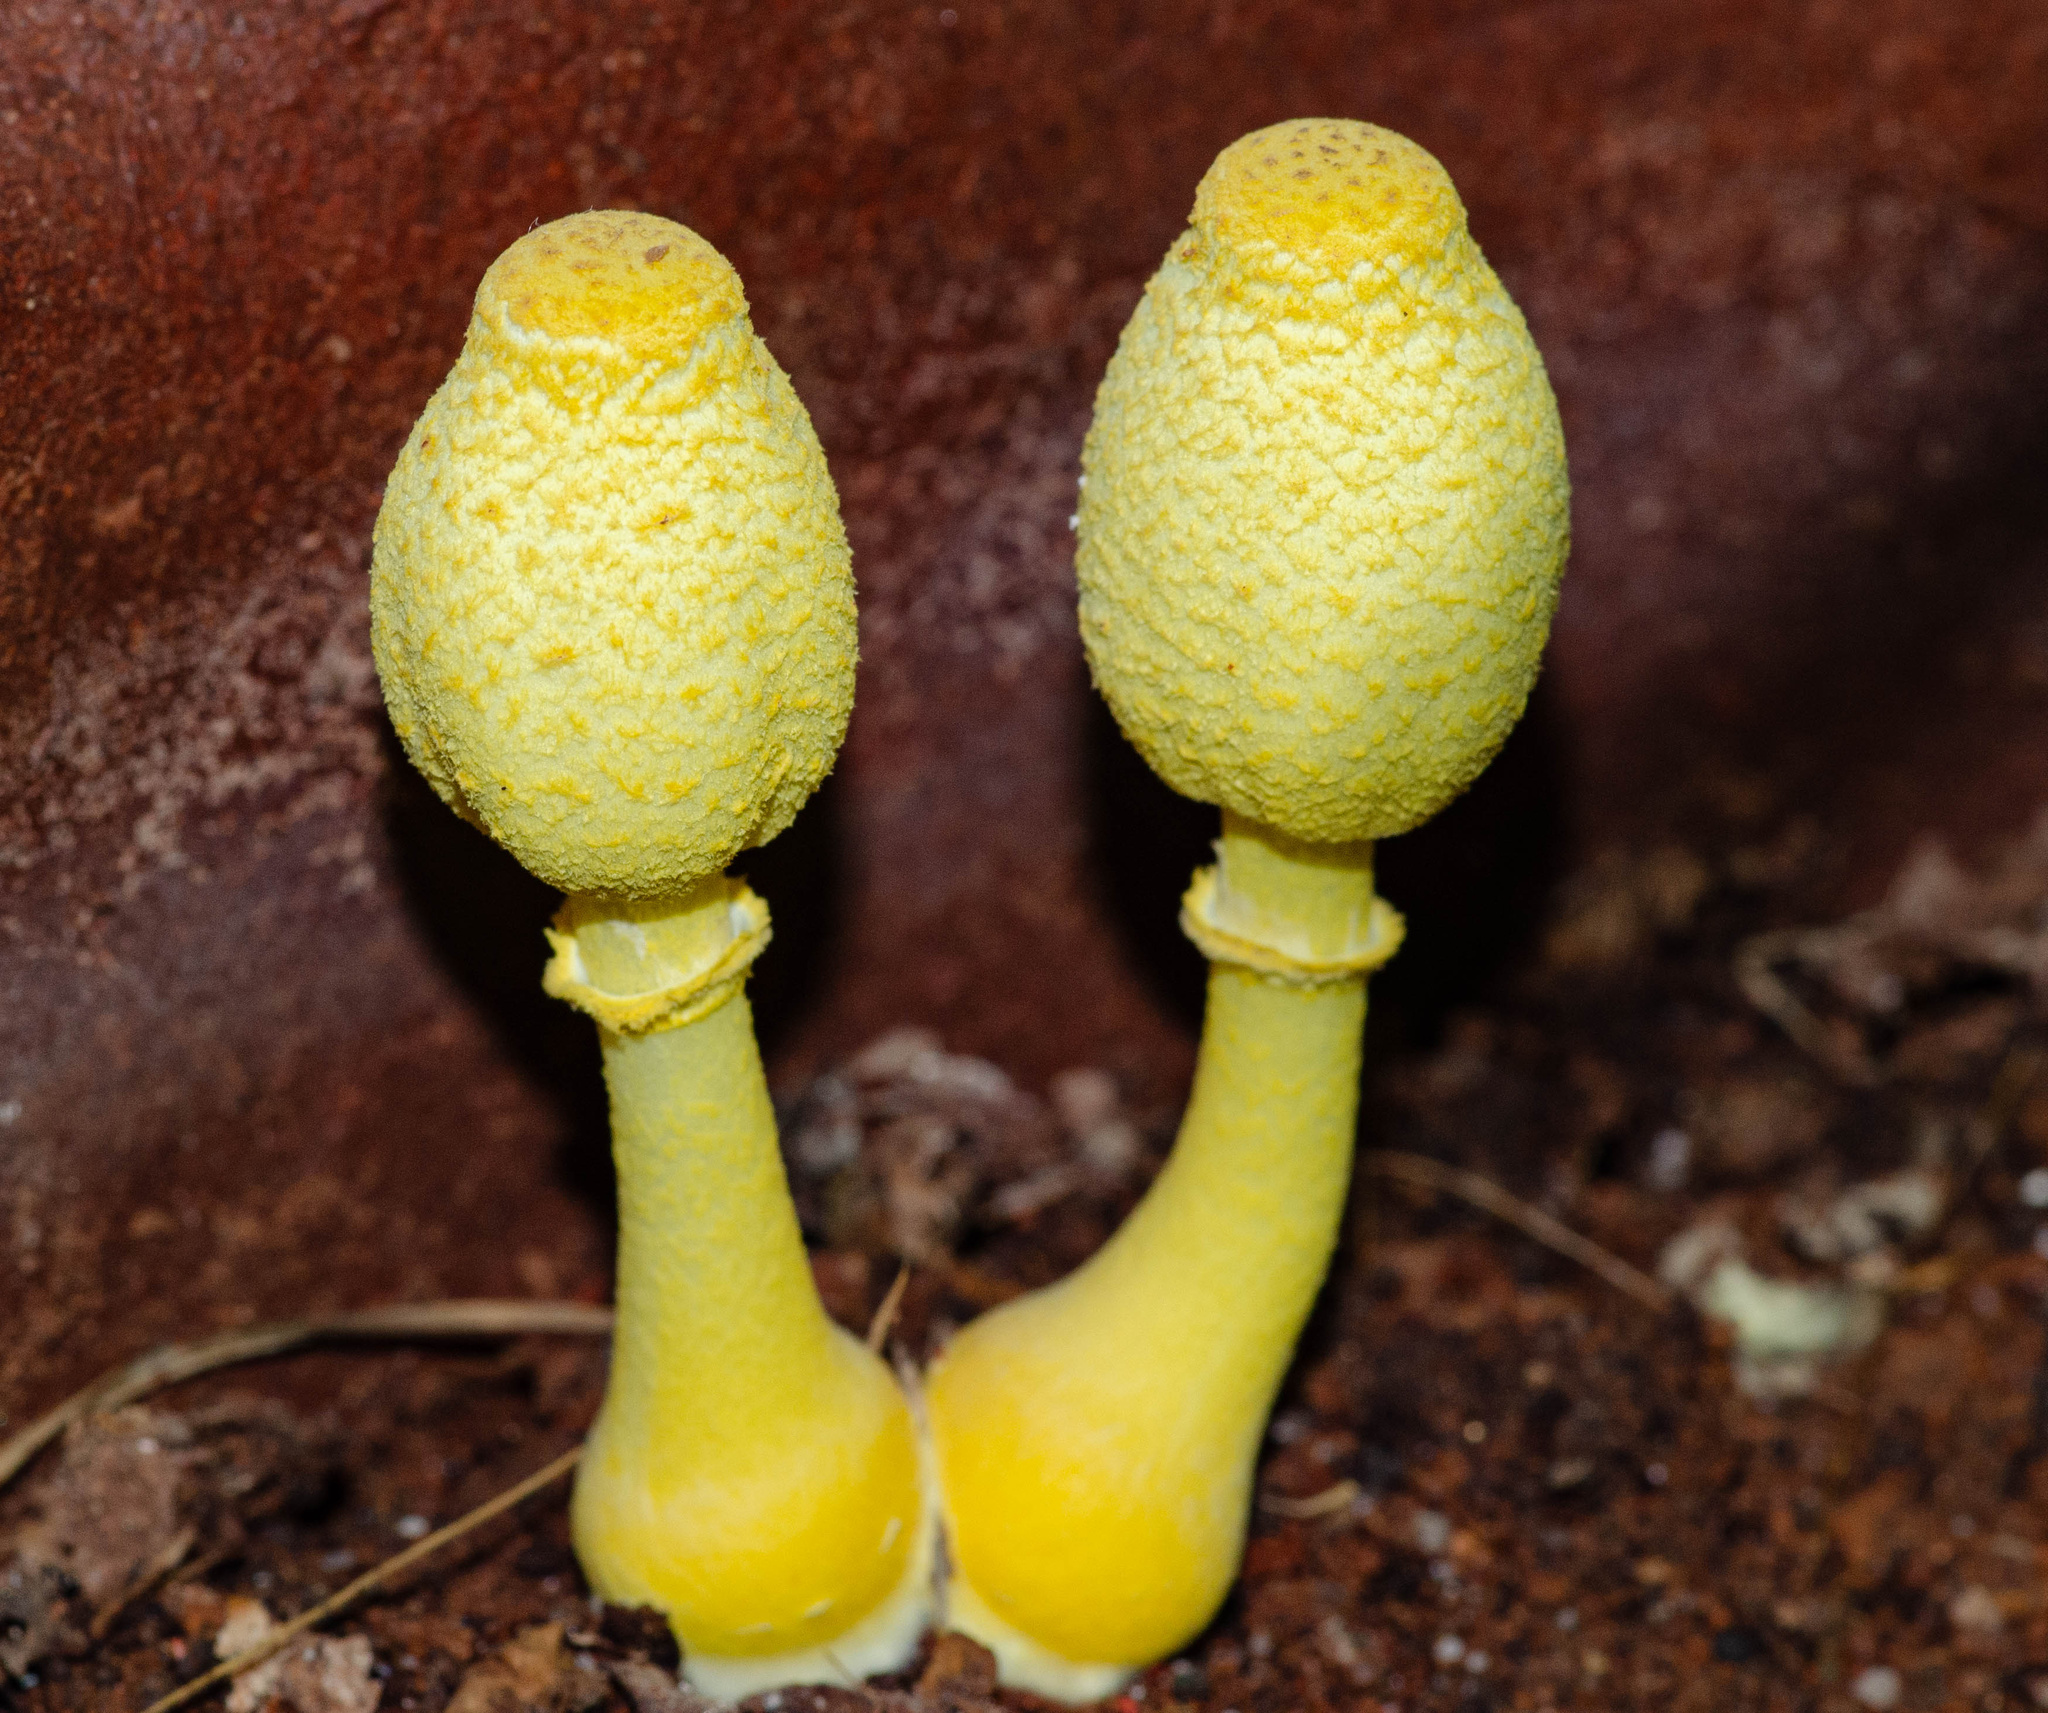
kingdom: Fungi
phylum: Basidiomycota
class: Agaricomycetes
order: Agaricales
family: Agaricaceae
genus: Leucocoprinus
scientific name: Leucocoprinus birnbaumii
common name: Plantpot dapperling
